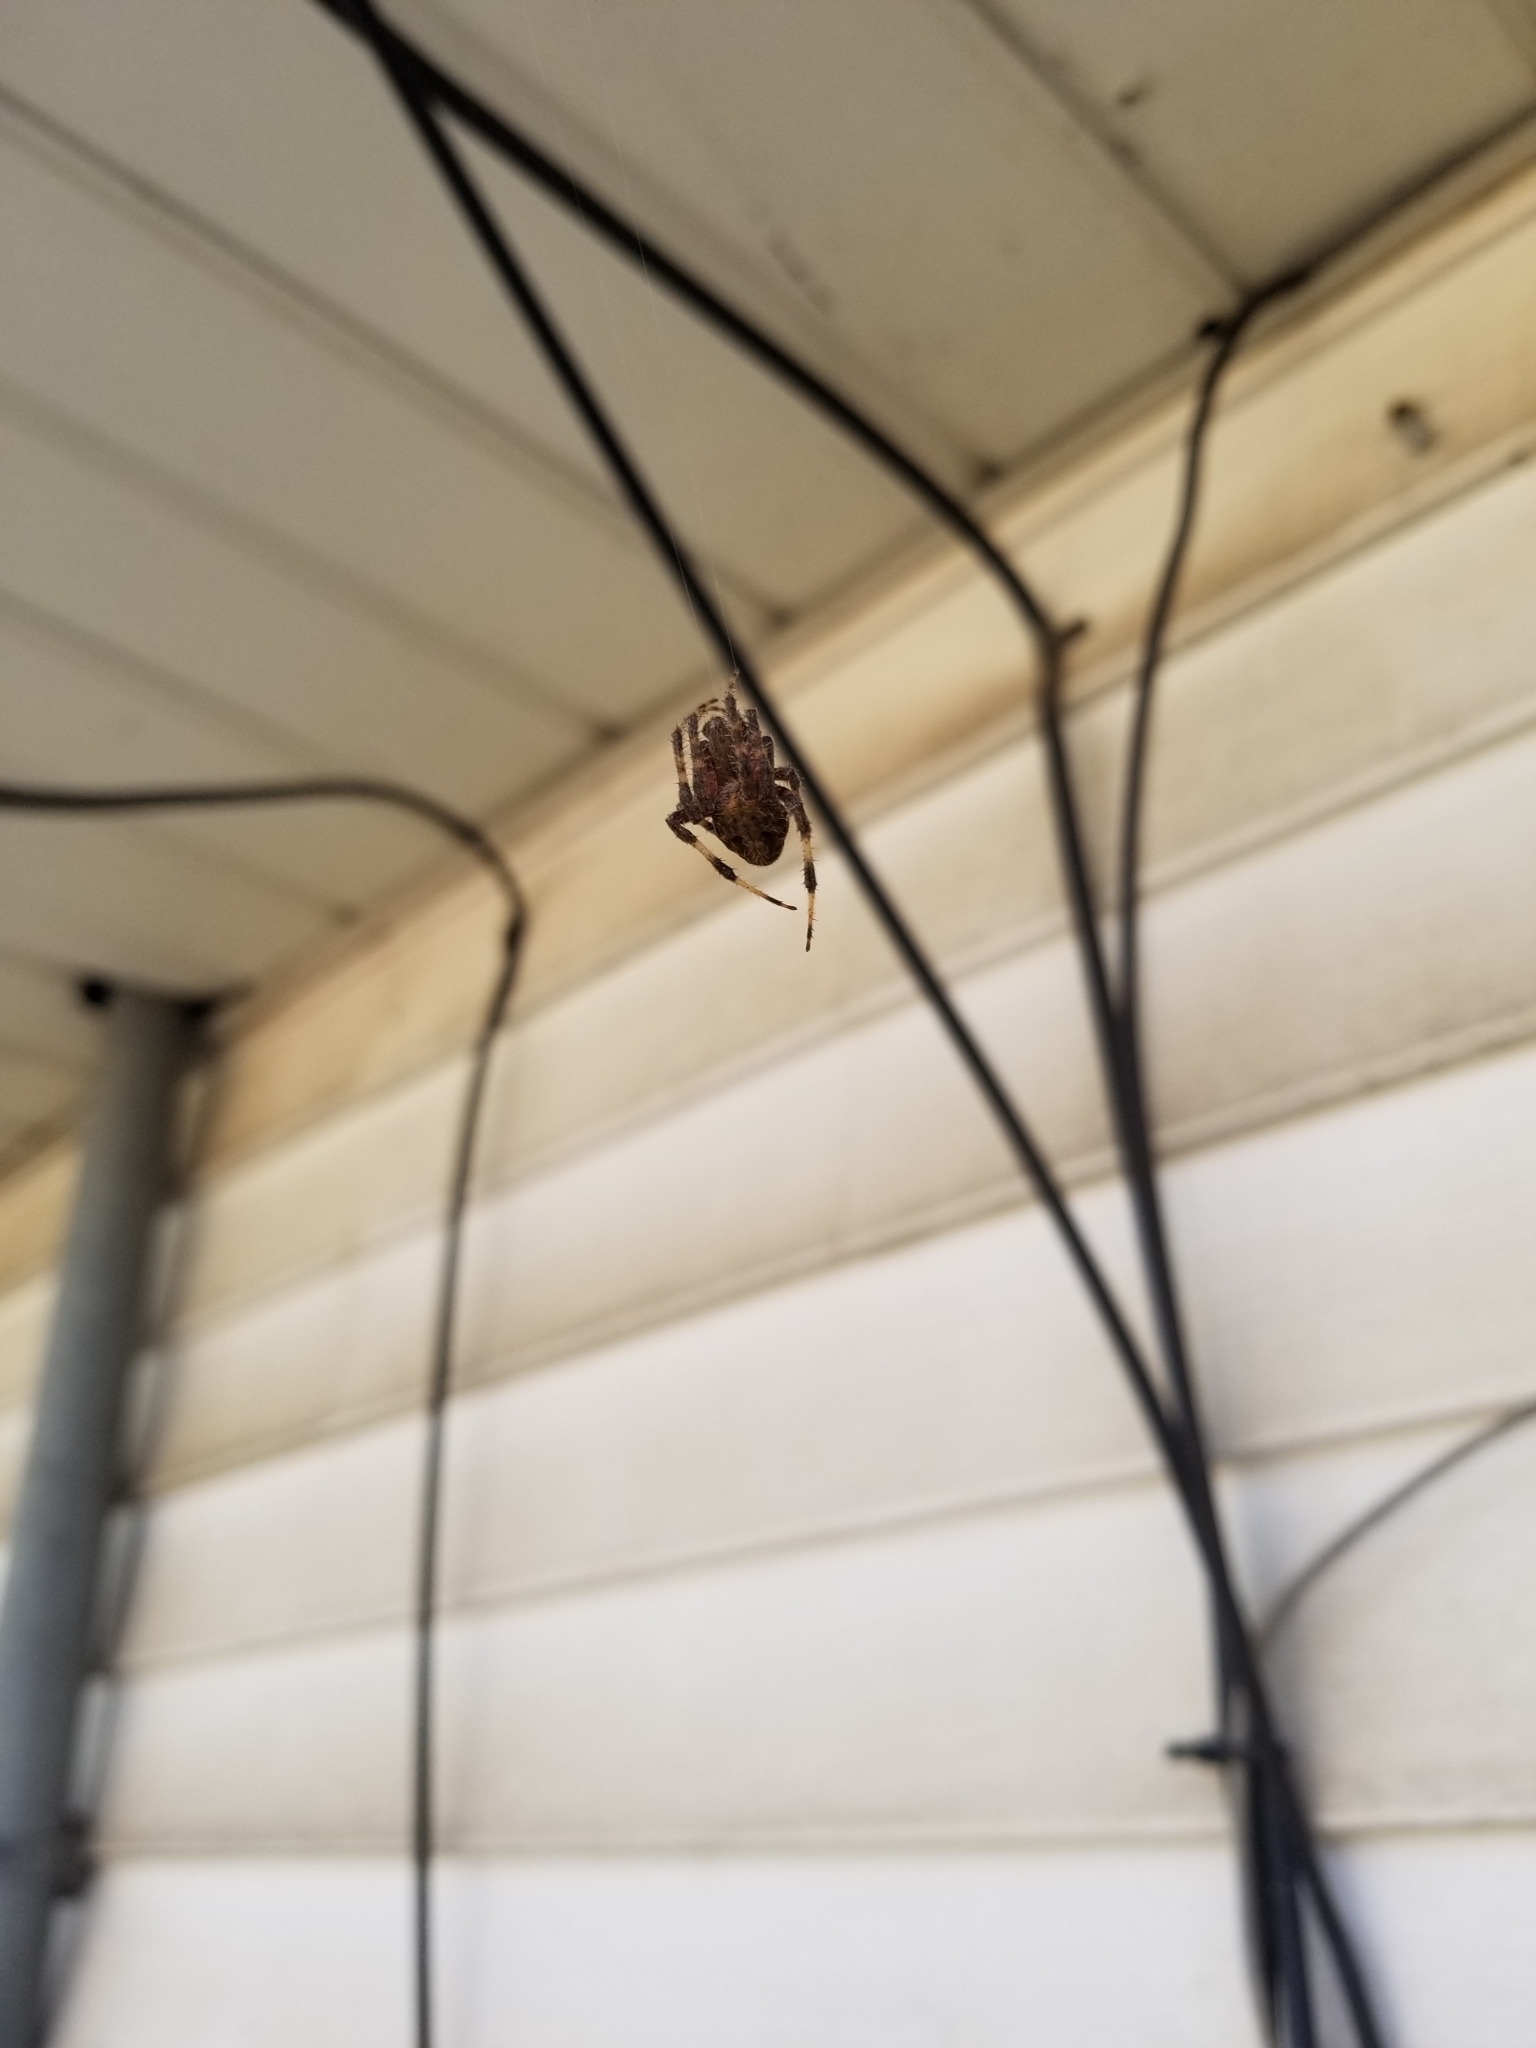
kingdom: Animalia
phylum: Arthropoda
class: Arachnida
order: Araneae
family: Araneidae
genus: Neoscona
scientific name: Neoscona crucifera
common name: Spotted orbweaver
